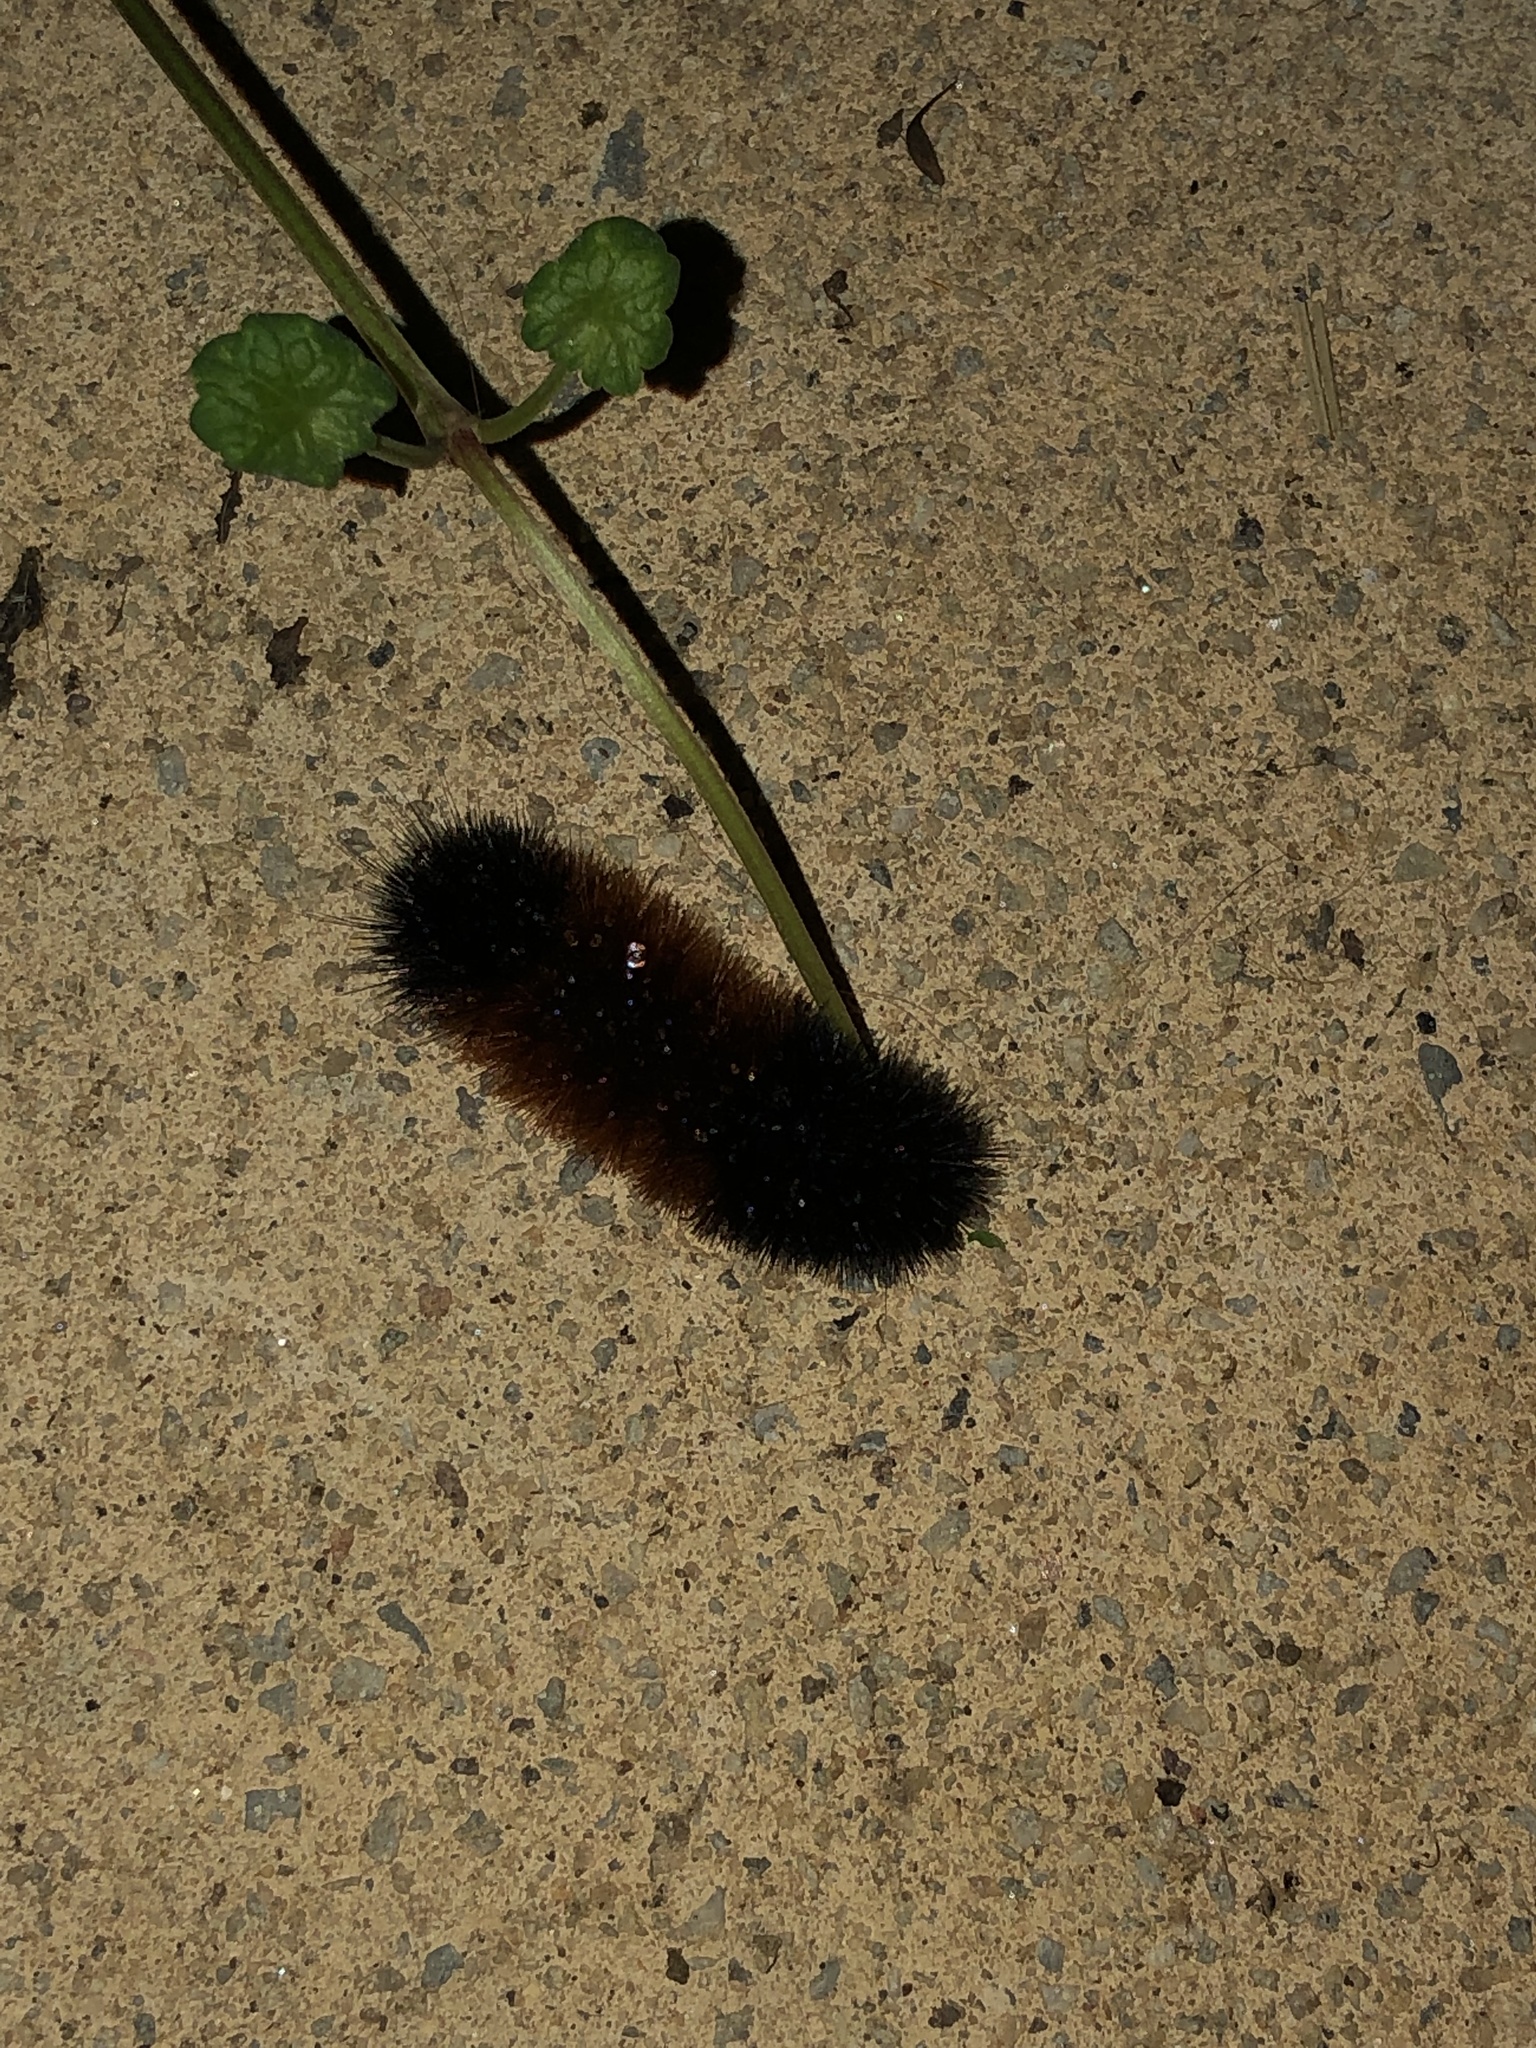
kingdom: Animalia
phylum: Arthropoda
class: Insecta
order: Lepidoptera
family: Erebidae
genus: Pyrrharctia
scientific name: Pyrrharctia isabella
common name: Isabella tiger moth
